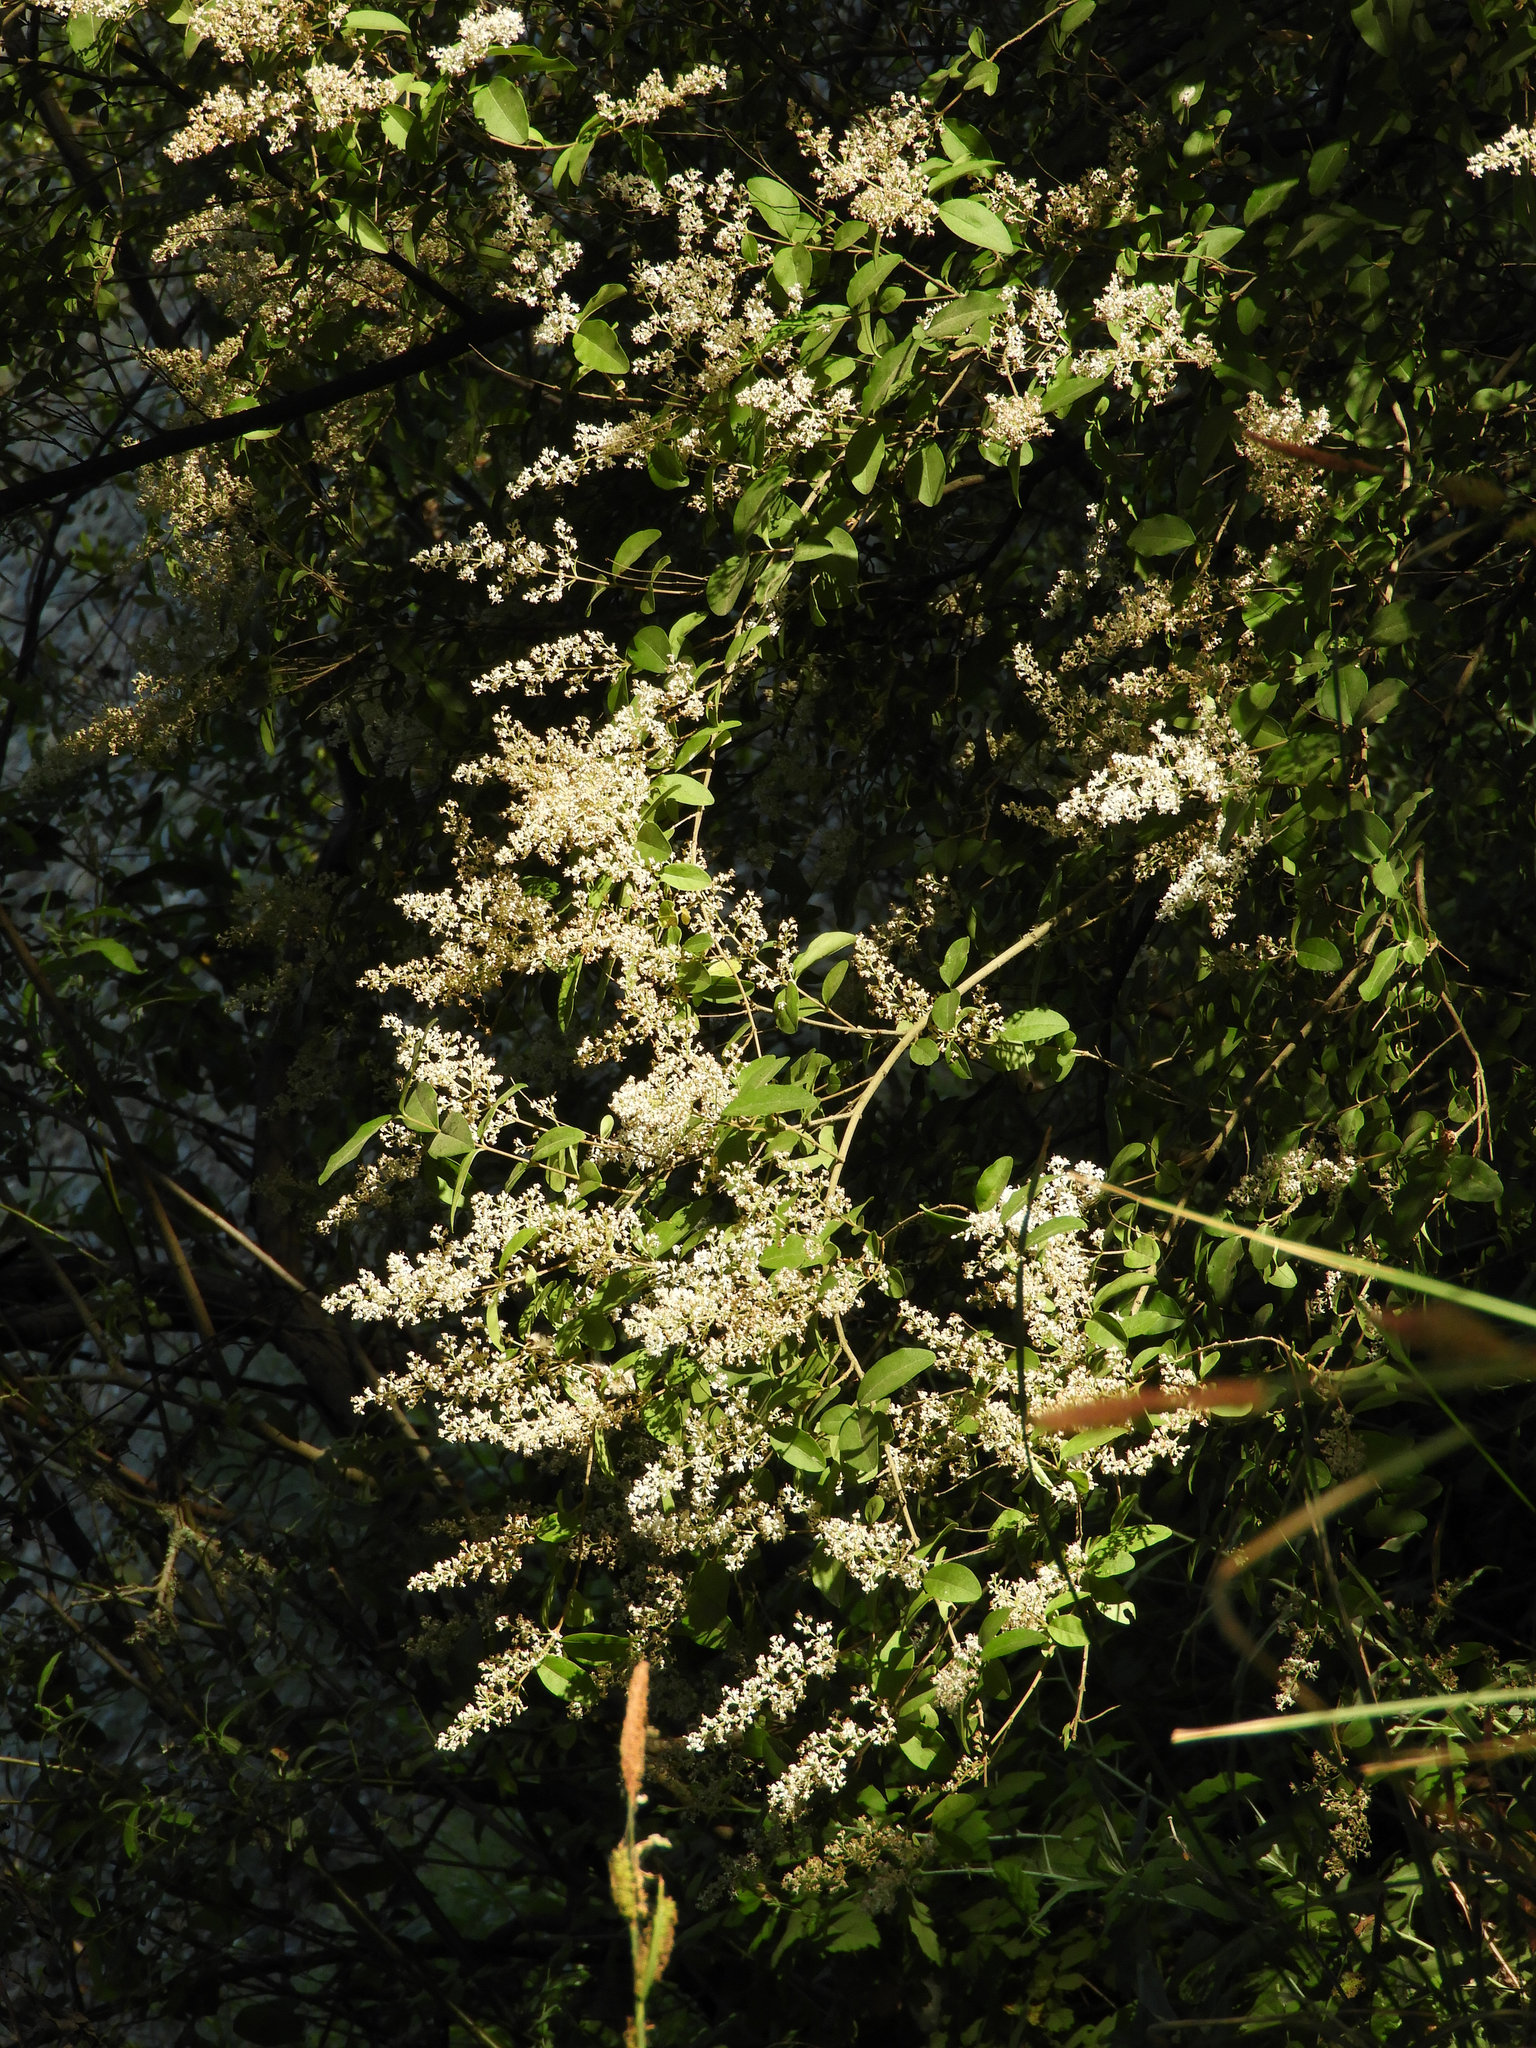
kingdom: Plantae
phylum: Tracheophyta
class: Magnoliopsida
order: Lamiales
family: Oleaceae
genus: Ligustrum
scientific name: Ligustrum lucidum
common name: Glossy privet
